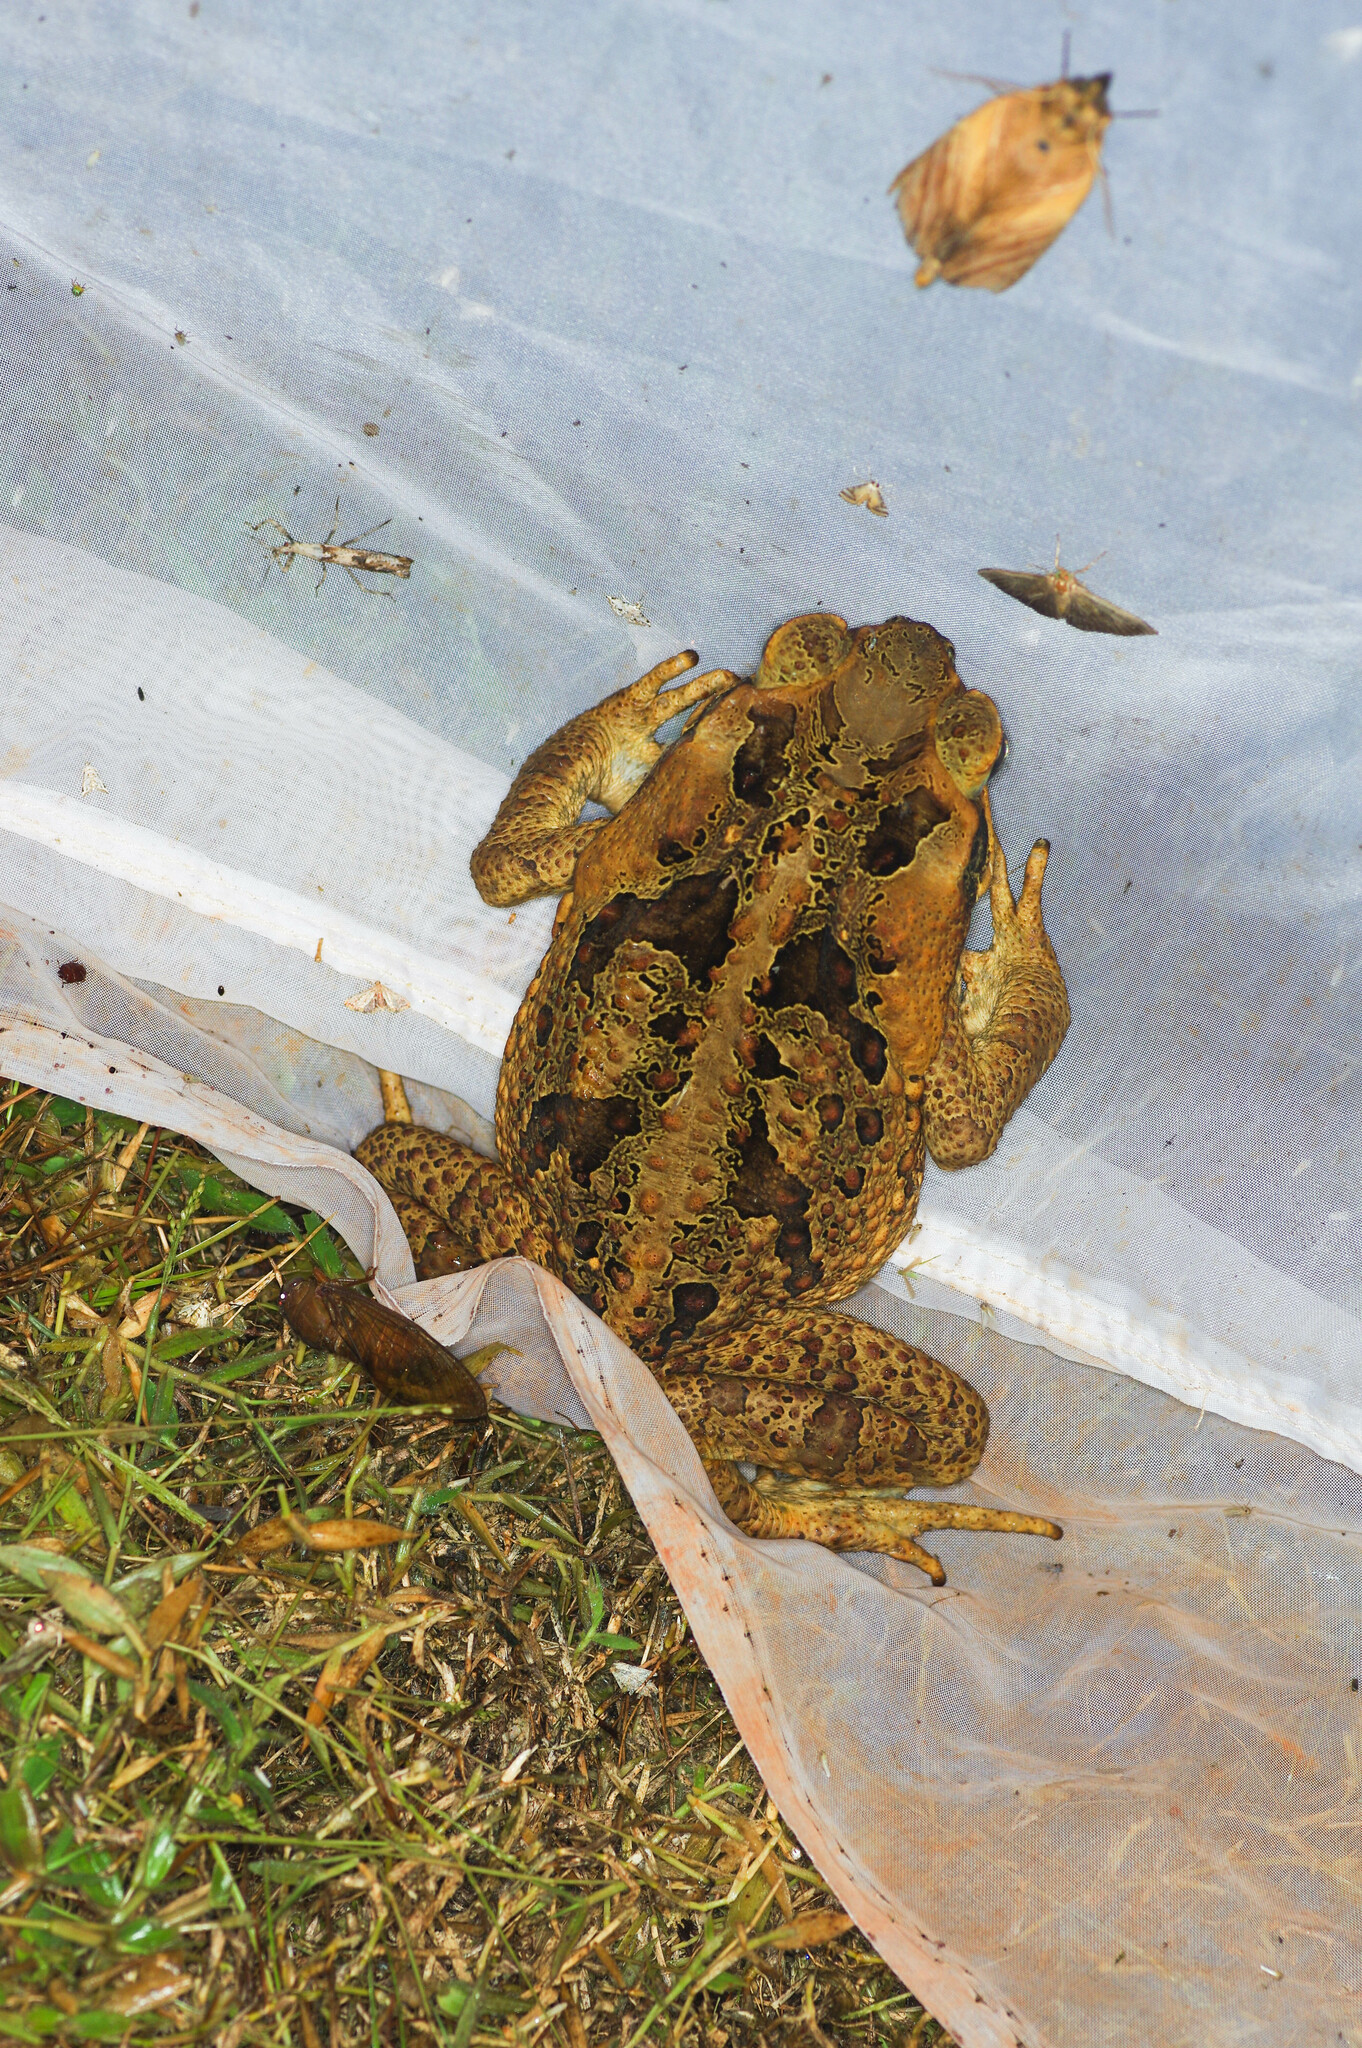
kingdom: Animalia
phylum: Chordata
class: Amphibia
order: Anura
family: Bufonidae
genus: Rhinella
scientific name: Rhinella marina
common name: Cane toad
